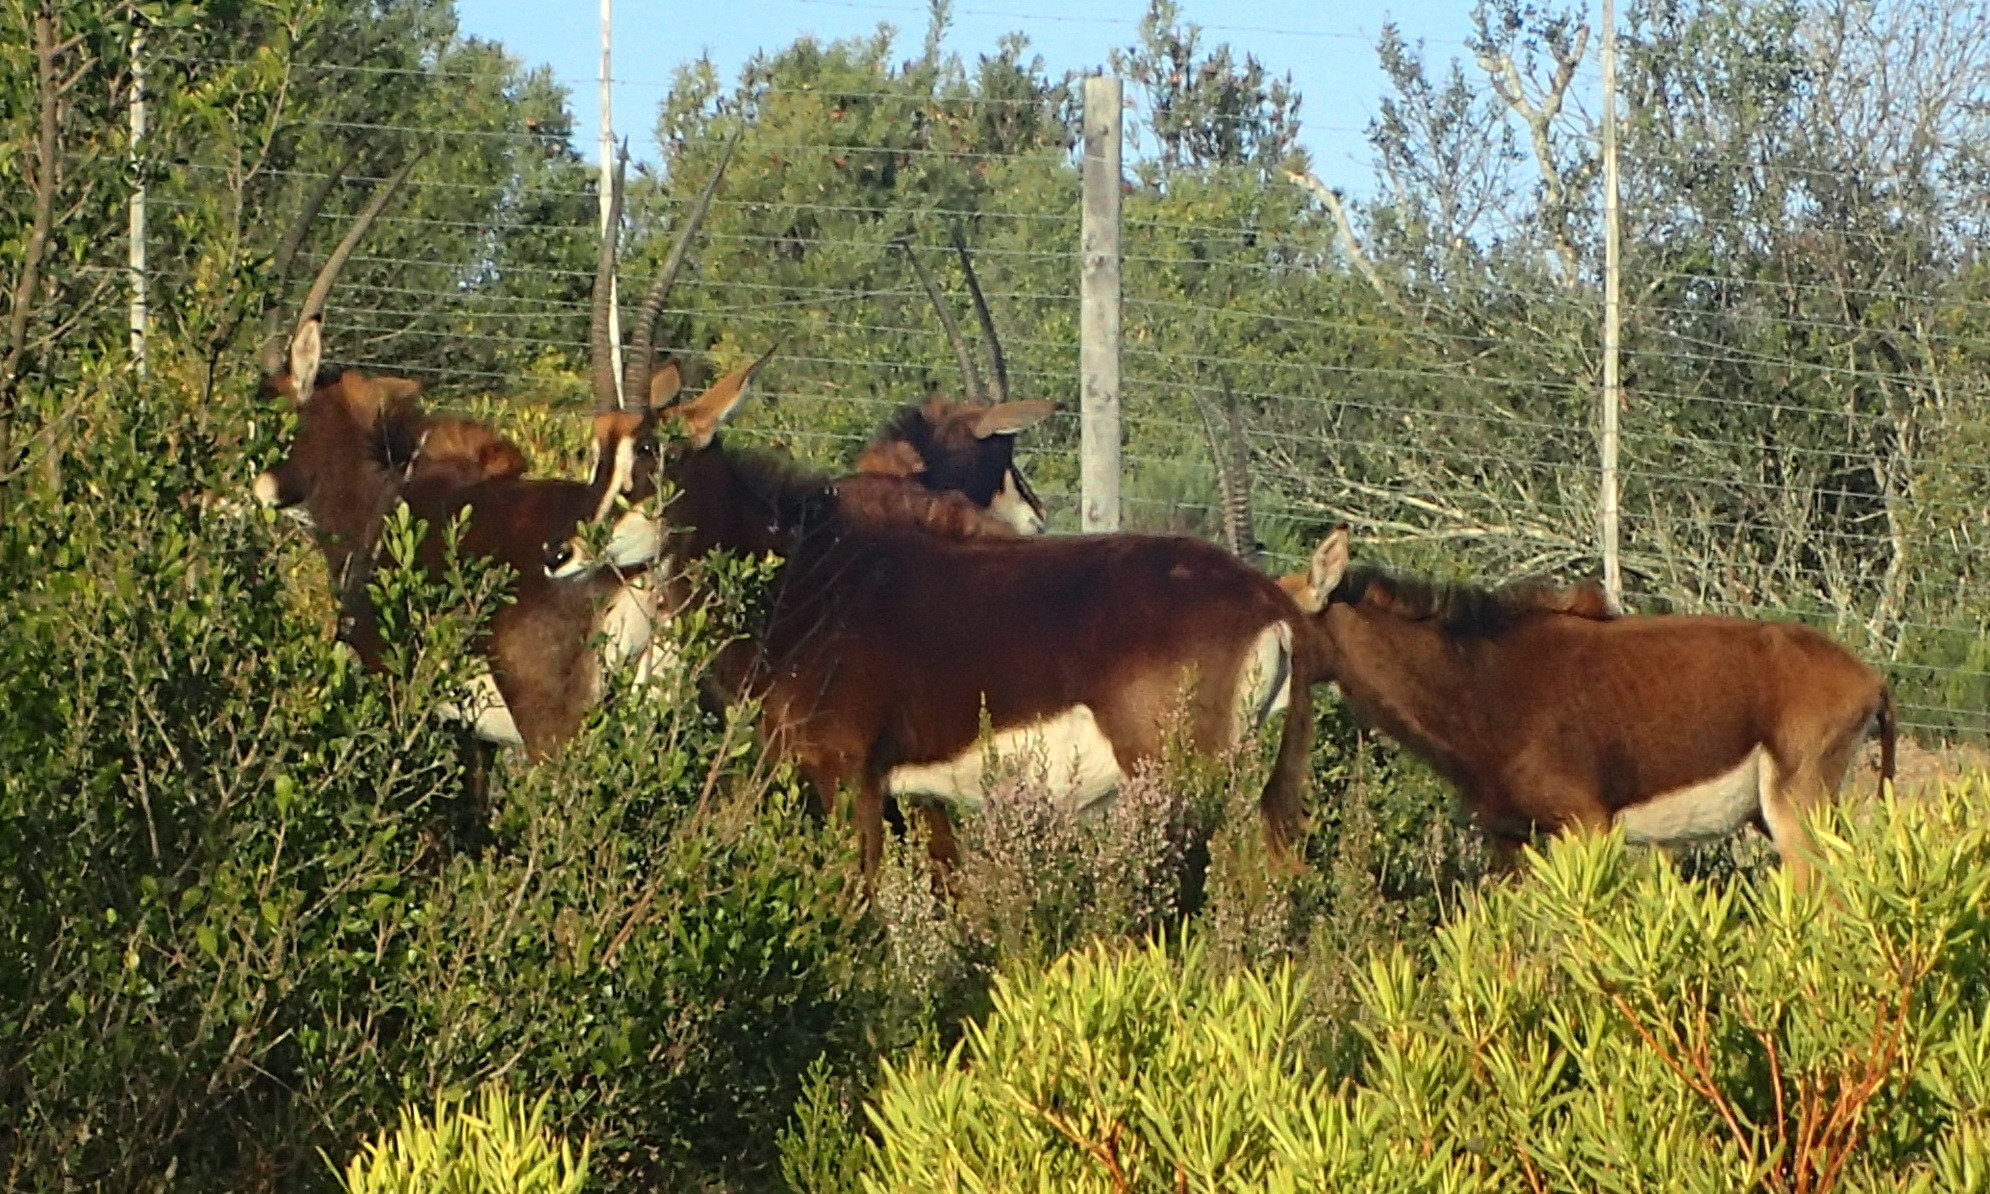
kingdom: Animalia
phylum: Chordata
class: Mammalia
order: Artiodactyla
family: Bovidae
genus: Hippotragus
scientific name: Hippotragus niger
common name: Sable antelope
